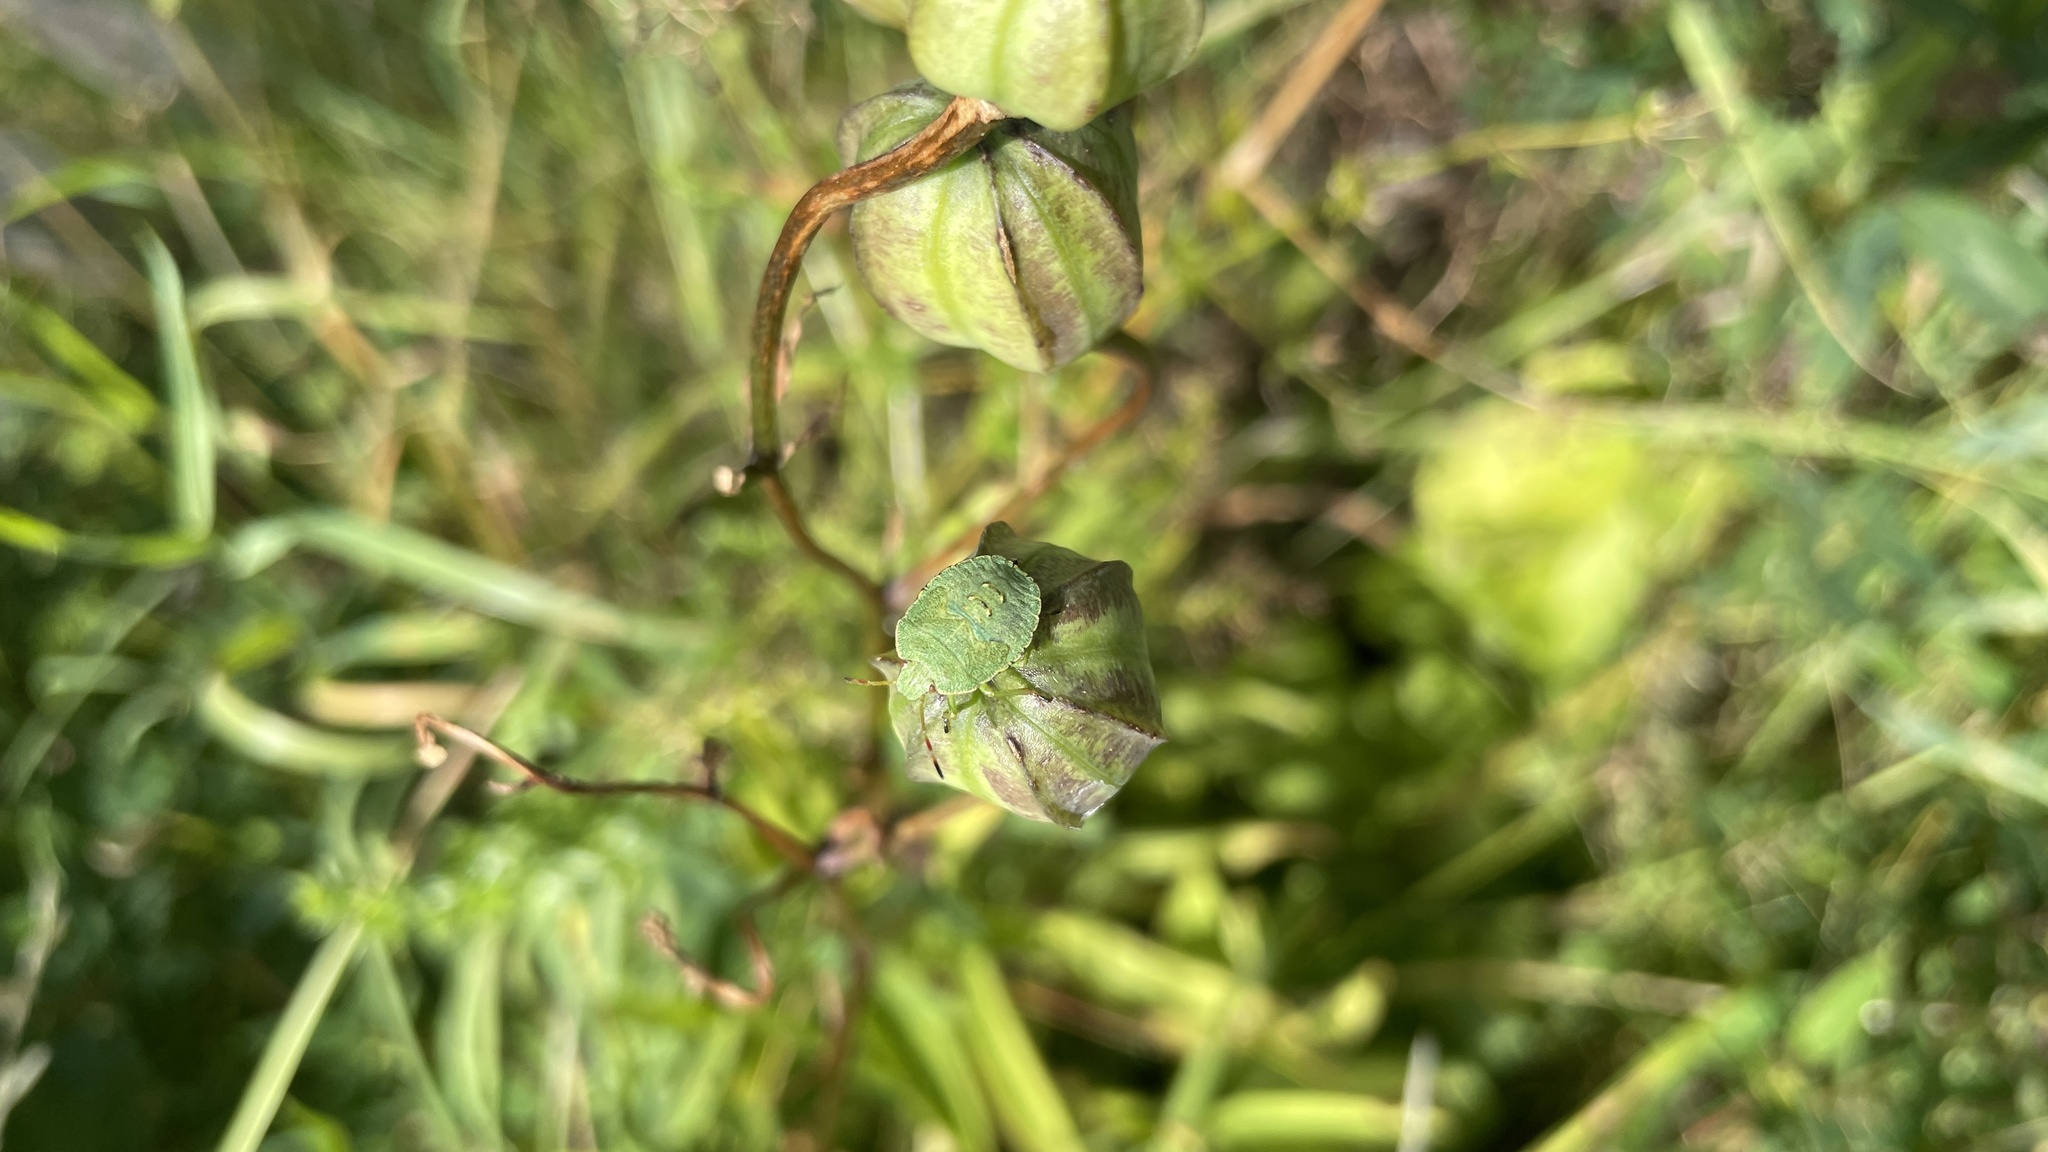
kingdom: Animalia
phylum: Arthropoda
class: Insecta
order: Hemiptera
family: Pentatomidae
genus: Palomena
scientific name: Palomena prasina
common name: Green shieldbug
